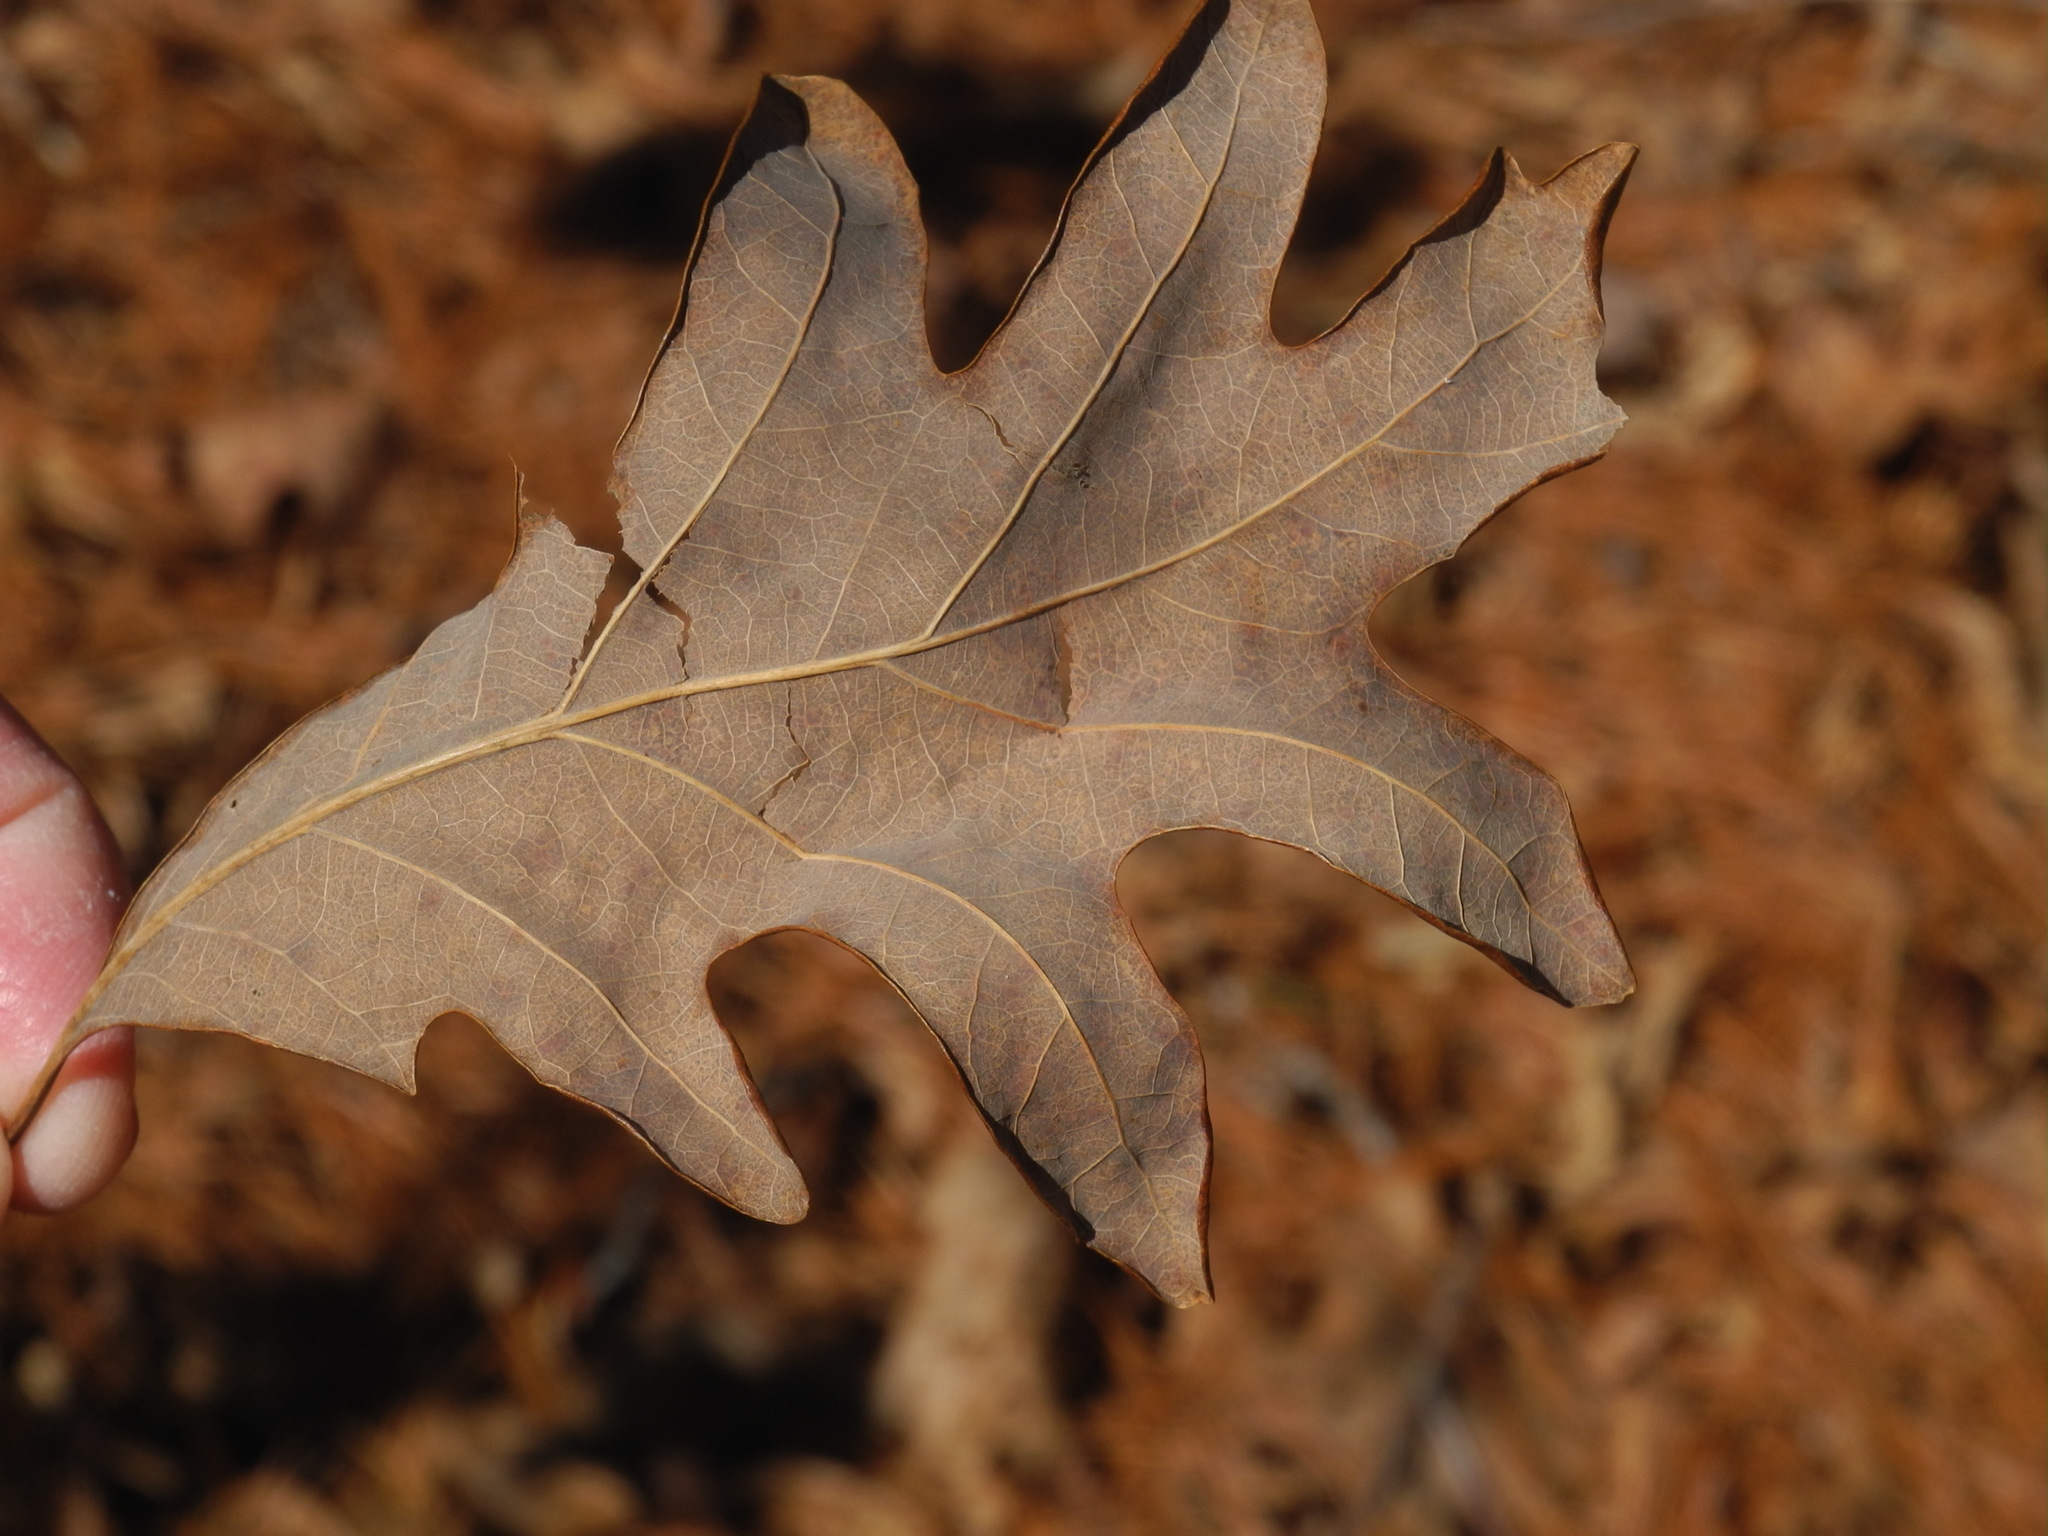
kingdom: Plantae
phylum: Tracheophyta
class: Magnoliopsida
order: Fagales
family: Fagaceae
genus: Quercus
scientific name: Quercus alba
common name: White oak
